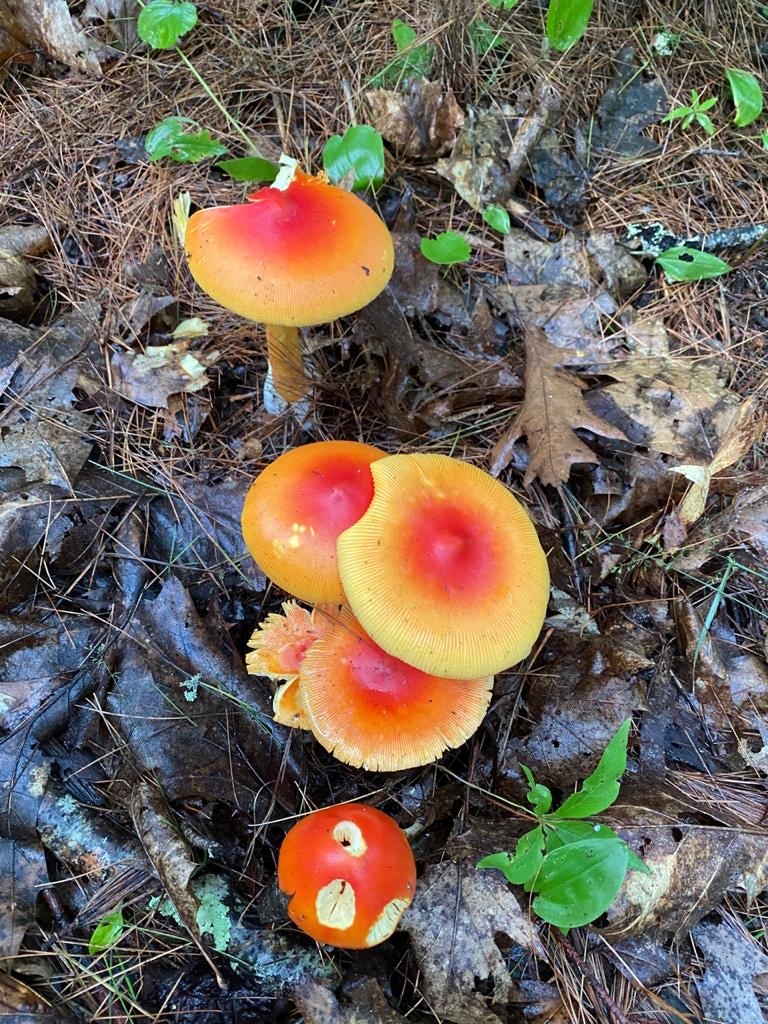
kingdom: Fungi
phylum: Basidiomycota
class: Agaricomycetes
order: Agaricales
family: Amanitaceae
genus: Amanita
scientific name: Amanita jacksonii
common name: Jackson's slender caesar
